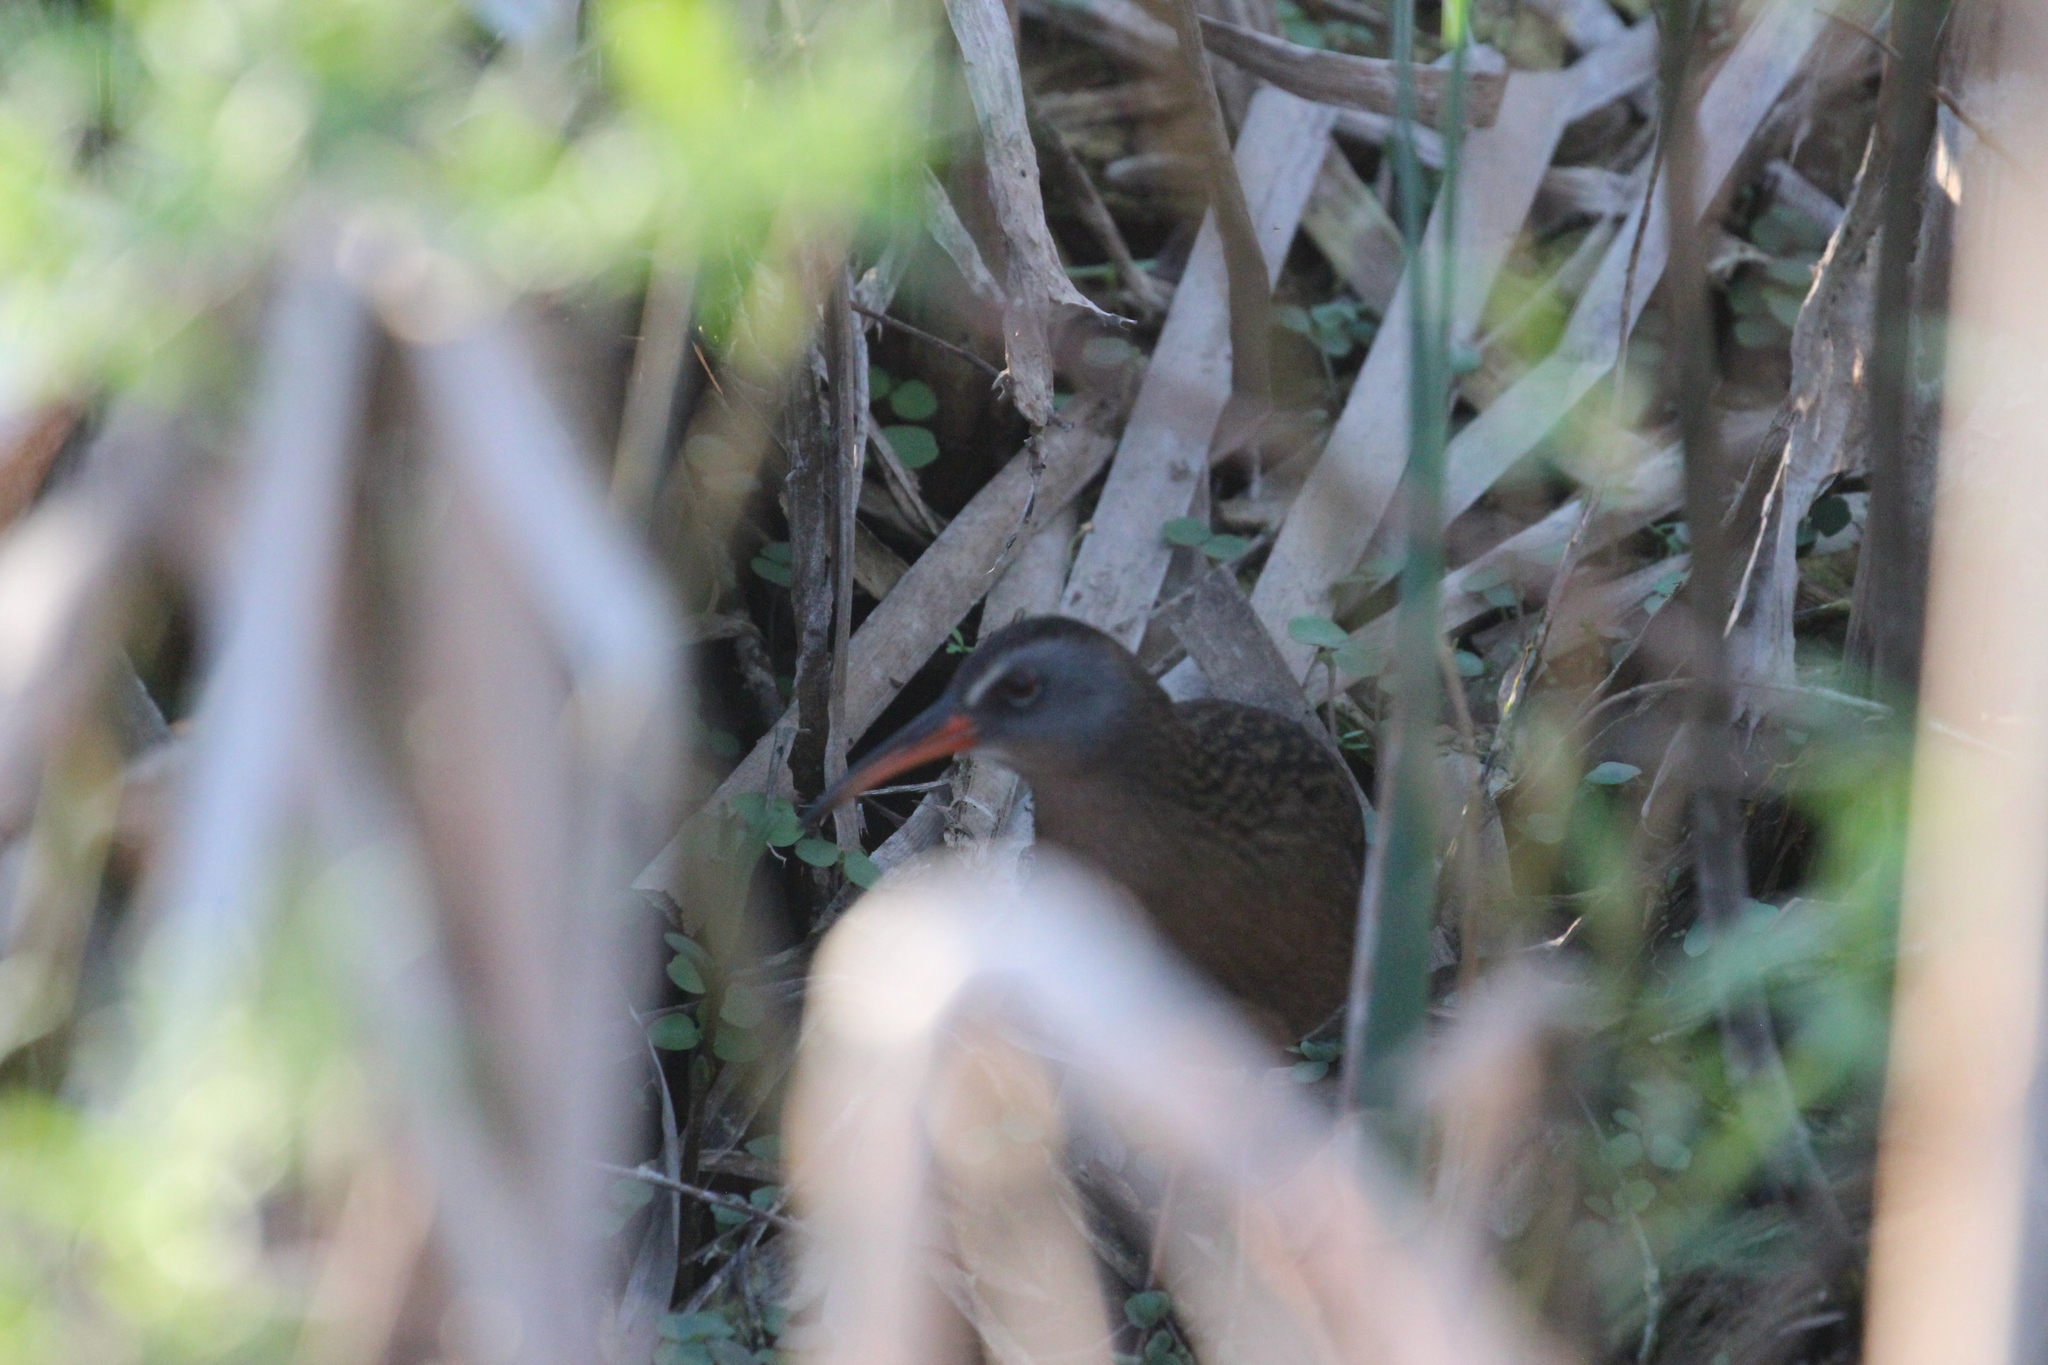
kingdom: Animalia
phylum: Chordata
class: Aves
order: Gruiformes
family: Rallidae
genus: Rallus
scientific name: Rallus limicola
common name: Virginia rail
